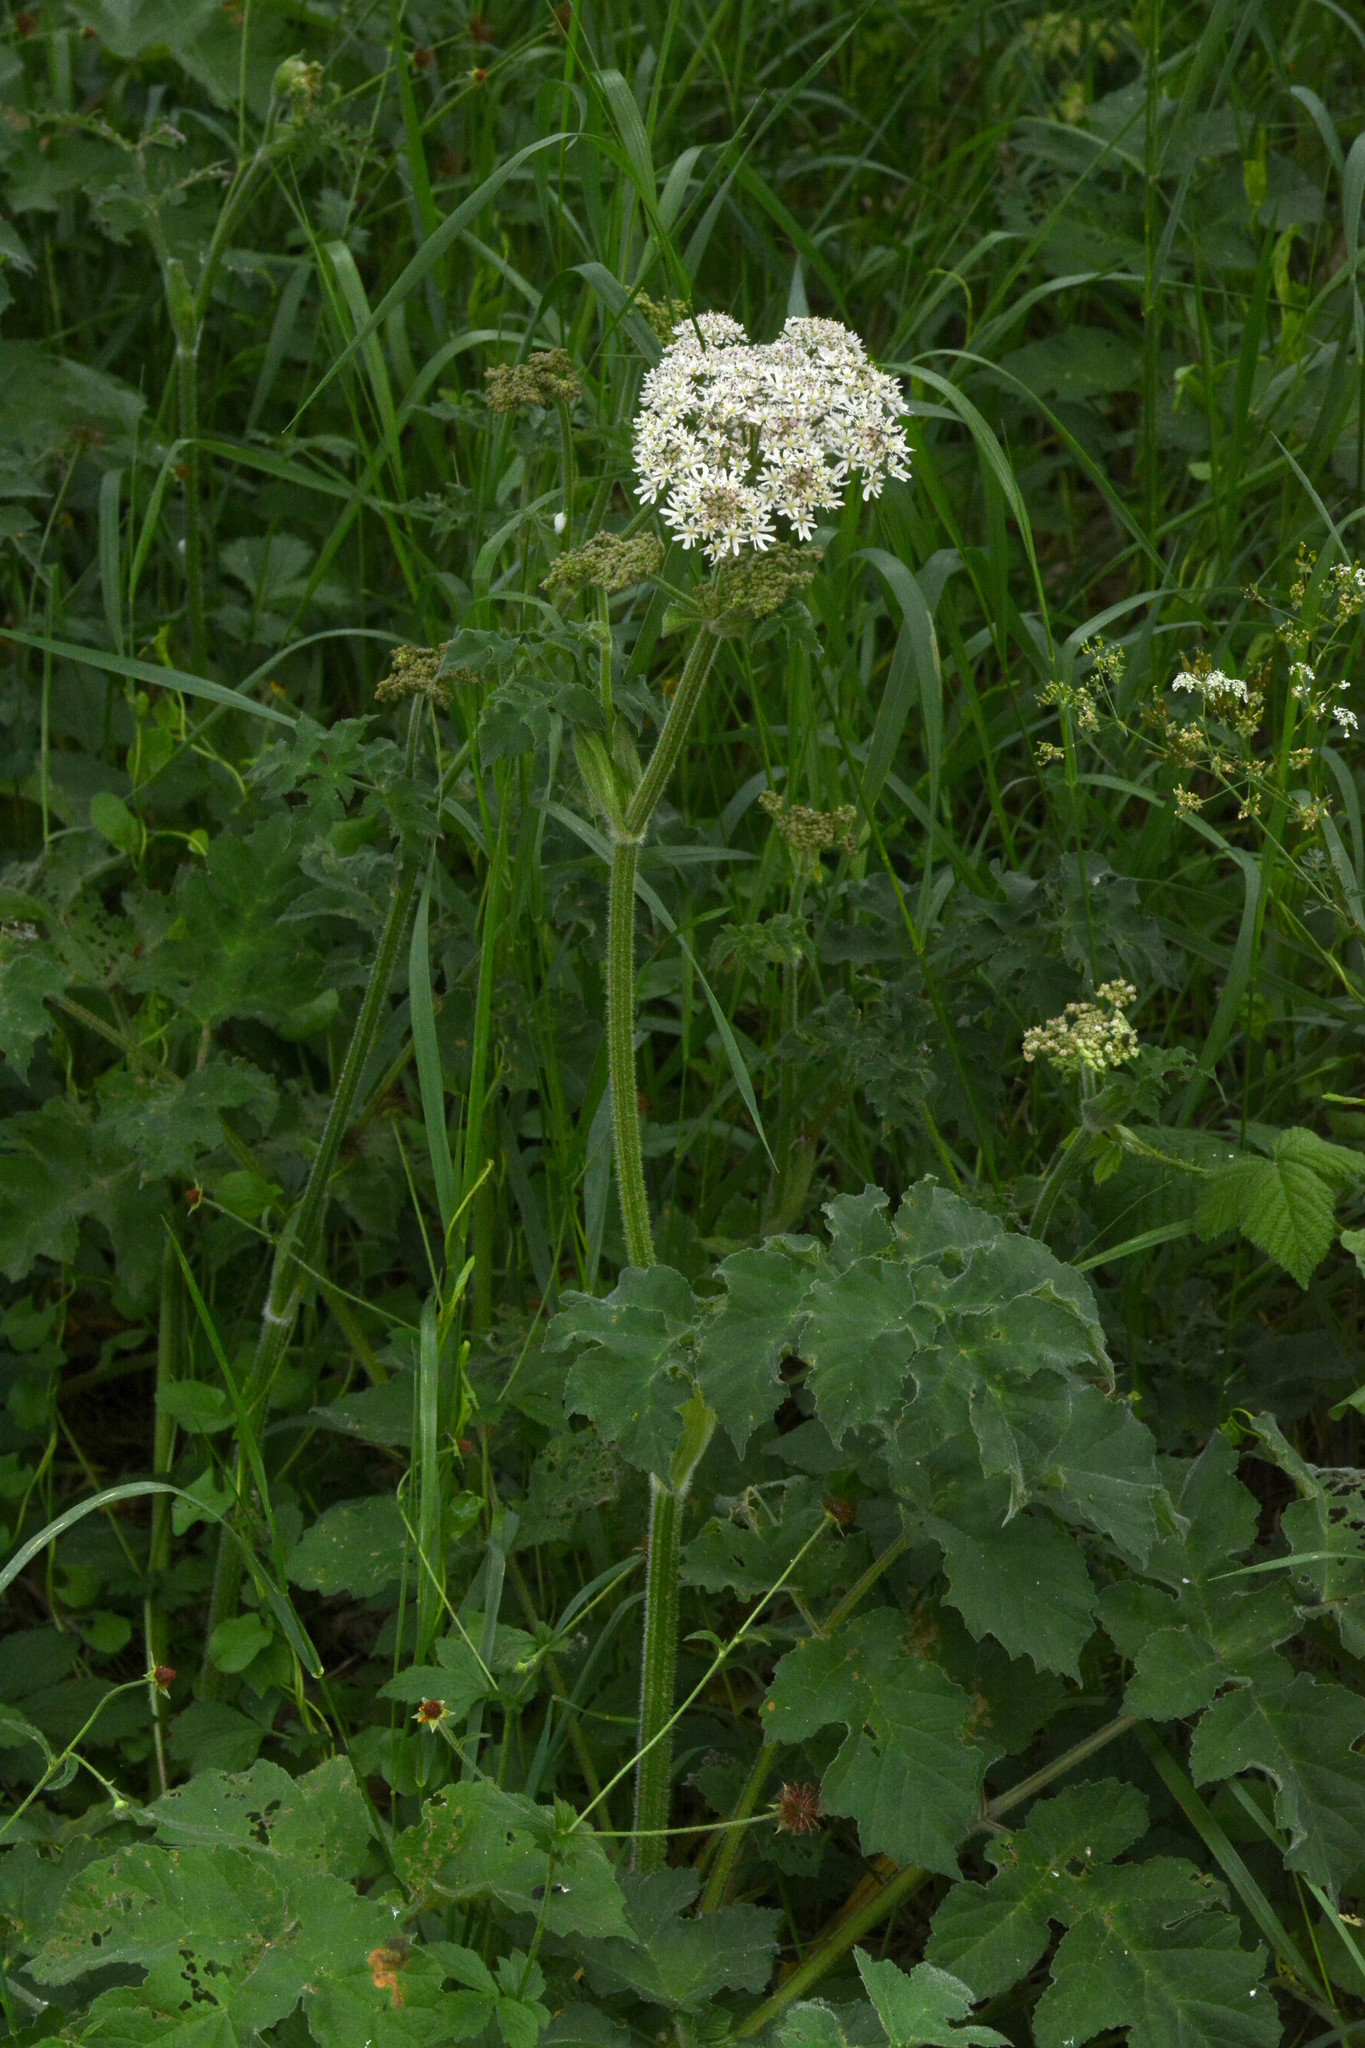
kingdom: Plantae
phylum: Tracheophyta
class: Magnoliopsida
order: Apiales
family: Apiaceae
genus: Heracleum
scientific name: Heracleum sphondylium
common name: Hogweed
